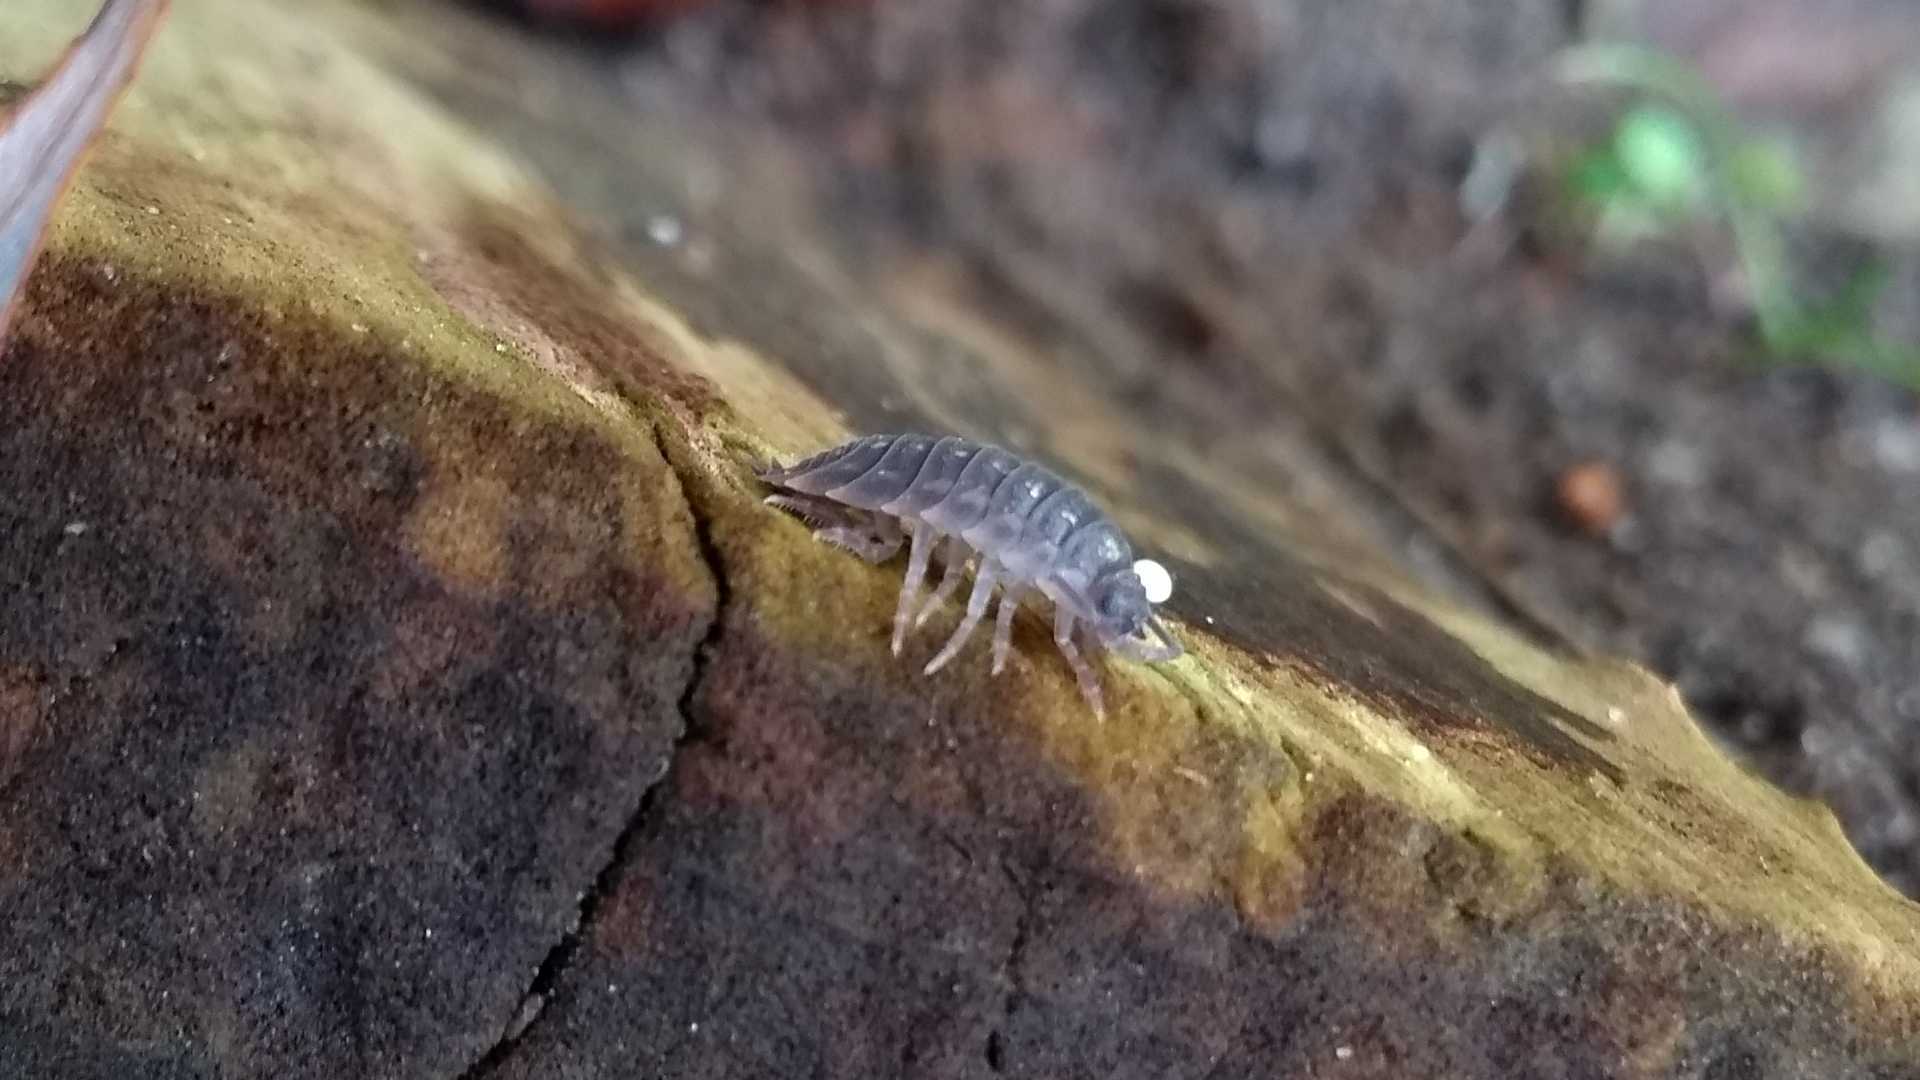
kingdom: Animalia
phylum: Arthropoda
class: Malacostraca
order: Isopoda
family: Oniscidae
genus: Oniscus
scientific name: Oniscus asellus
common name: Common shiny woodlouse
